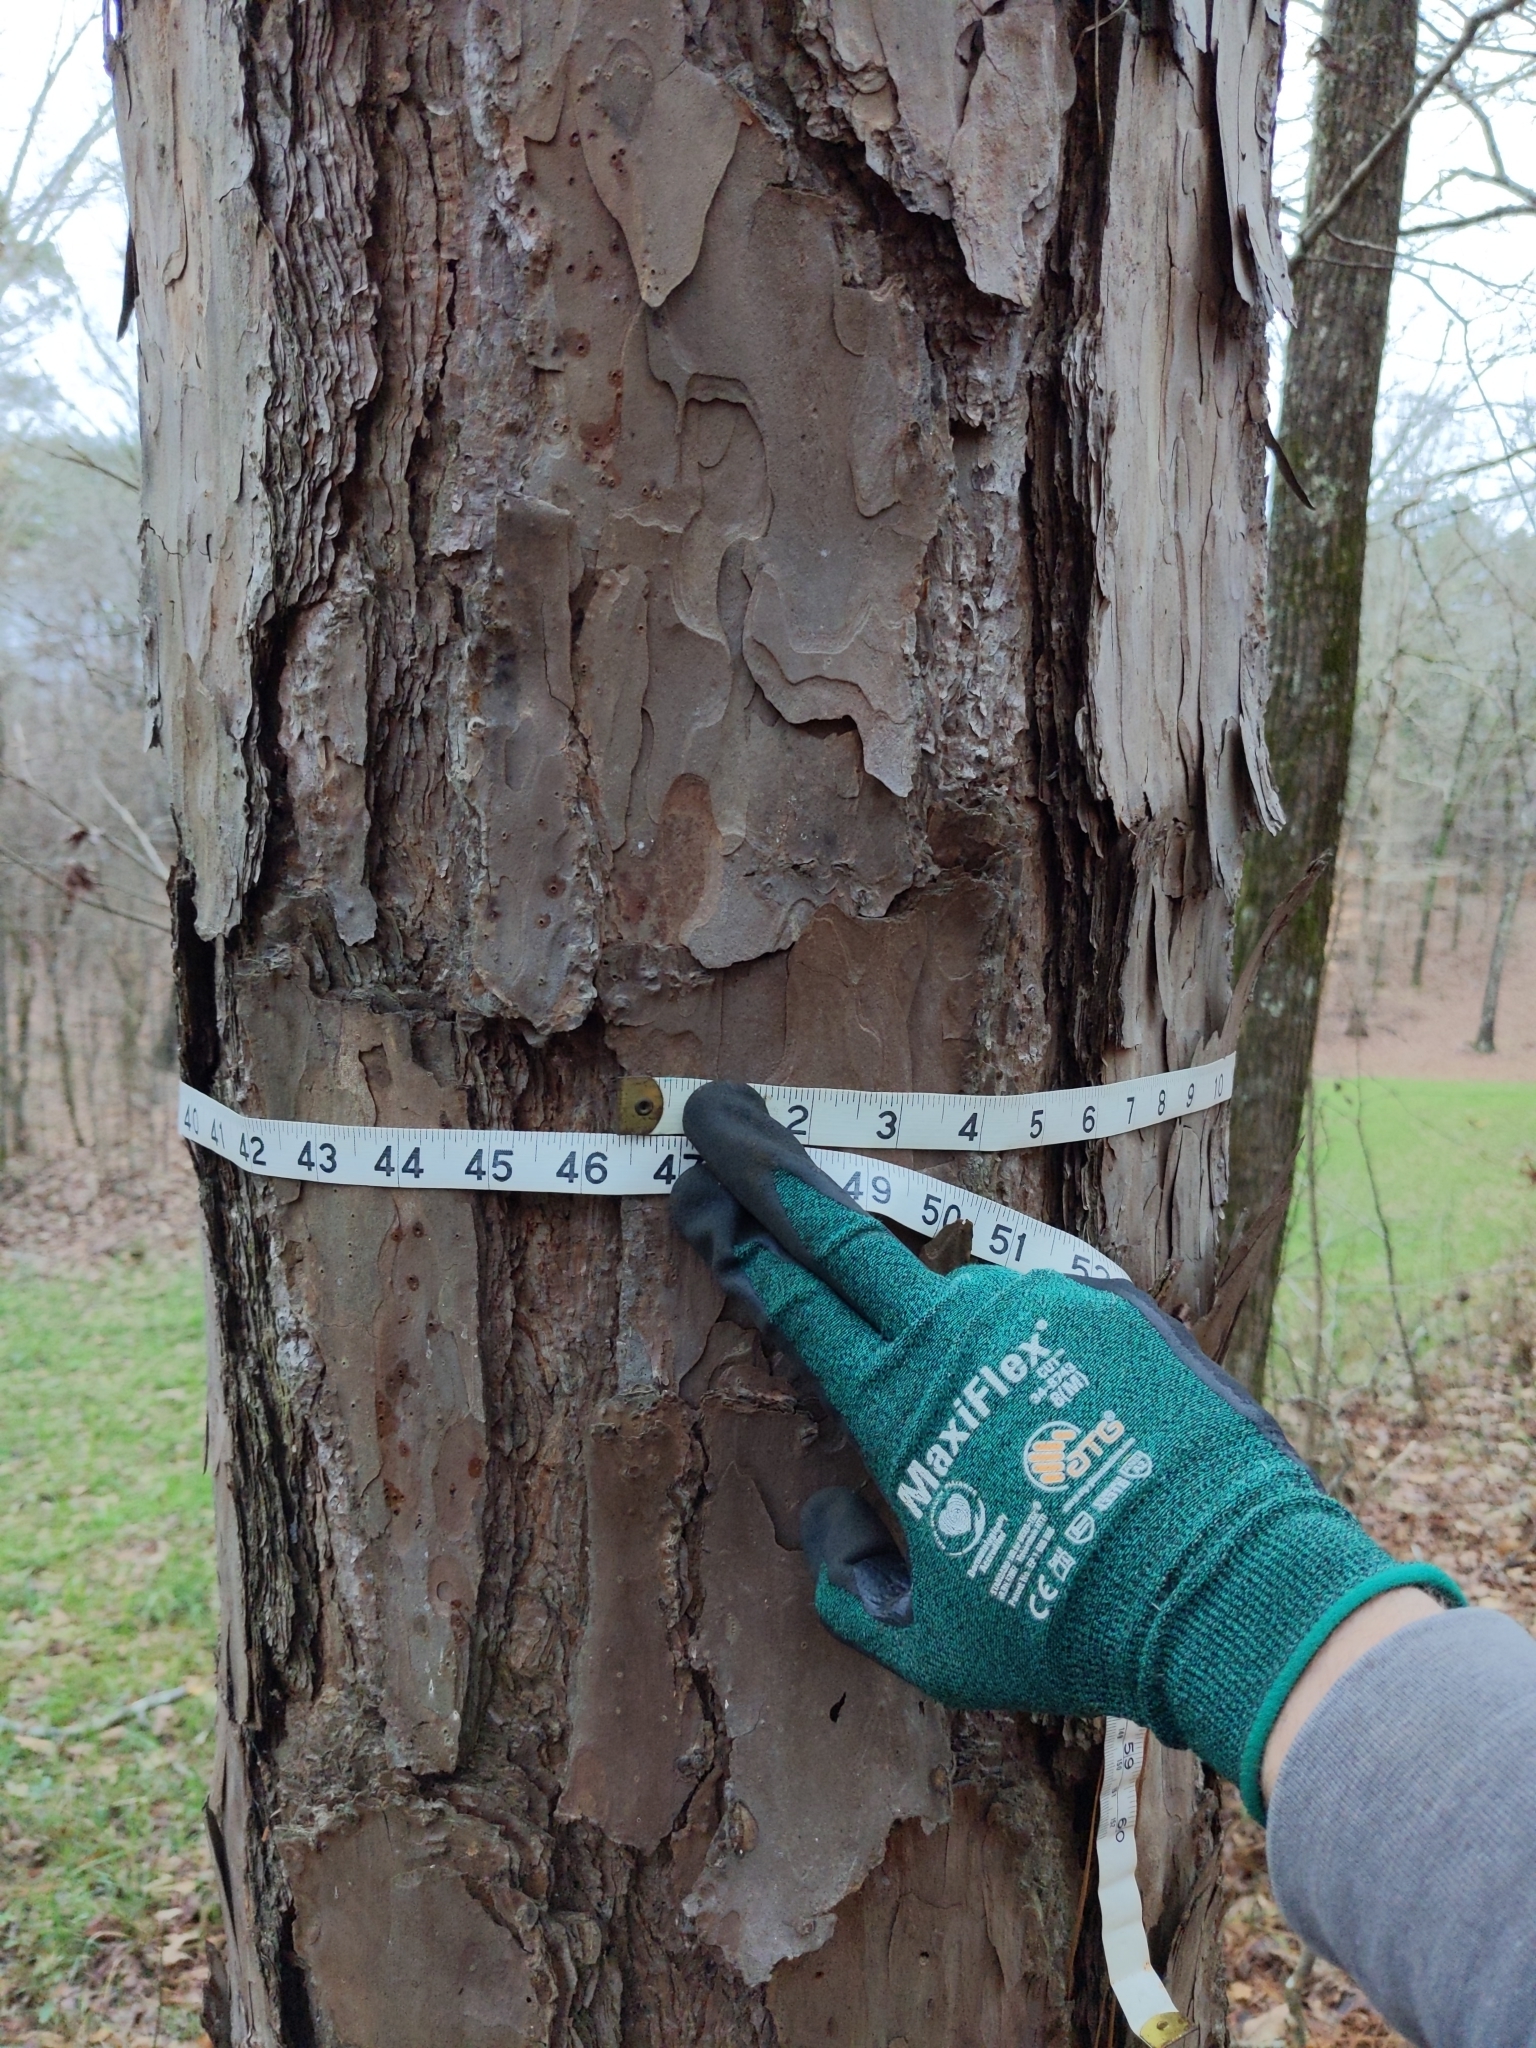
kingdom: Plantae
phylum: Tracheophyta
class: Pinopsida
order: Pinales
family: Pinaceae
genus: Pinus
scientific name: Pinus echinata
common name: Shortleaf pine
